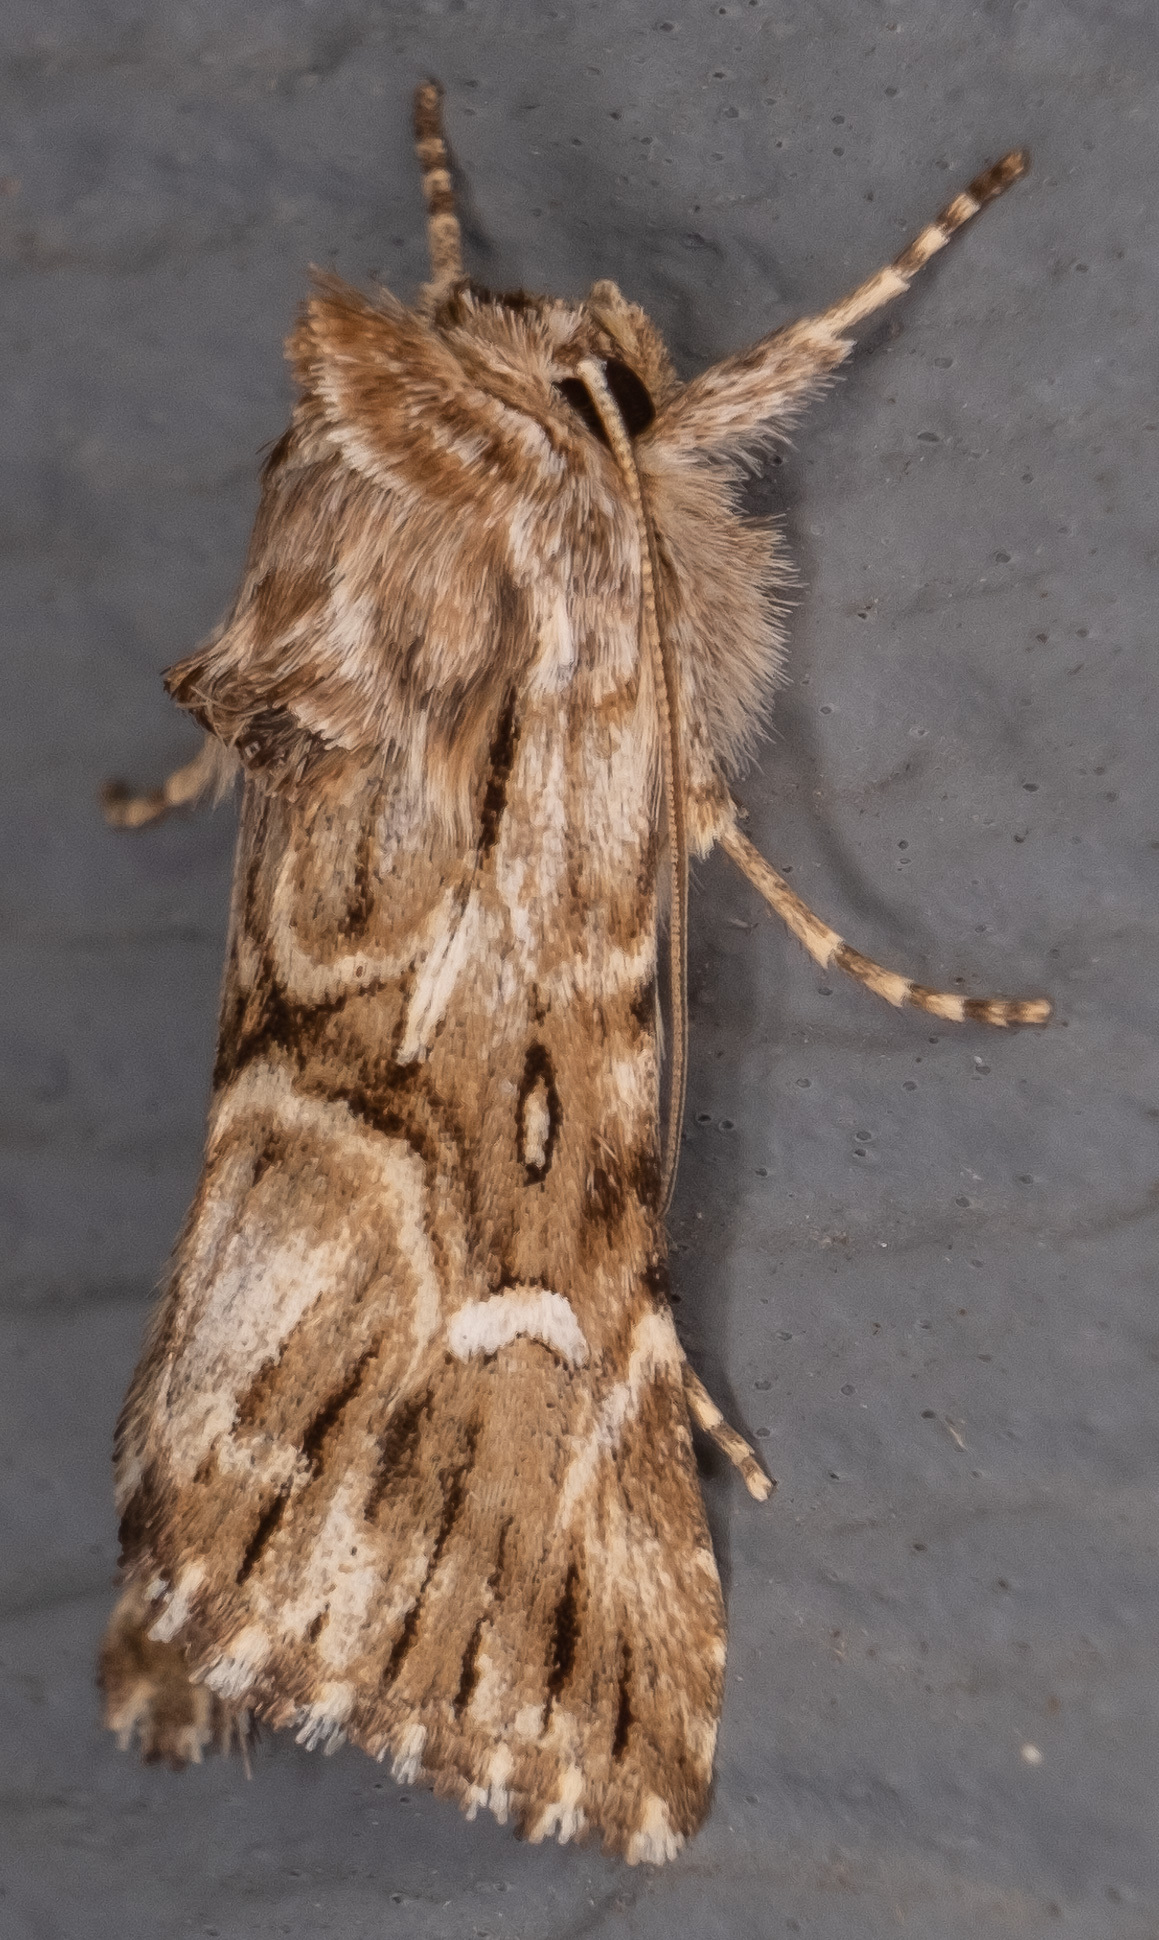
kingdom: Animalia
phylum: Arthropoda
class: Insecta
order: Lepidoptera
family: Noctuidae
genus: Calophasia
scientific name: Calophasia lunula
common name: Toadflax brocade
